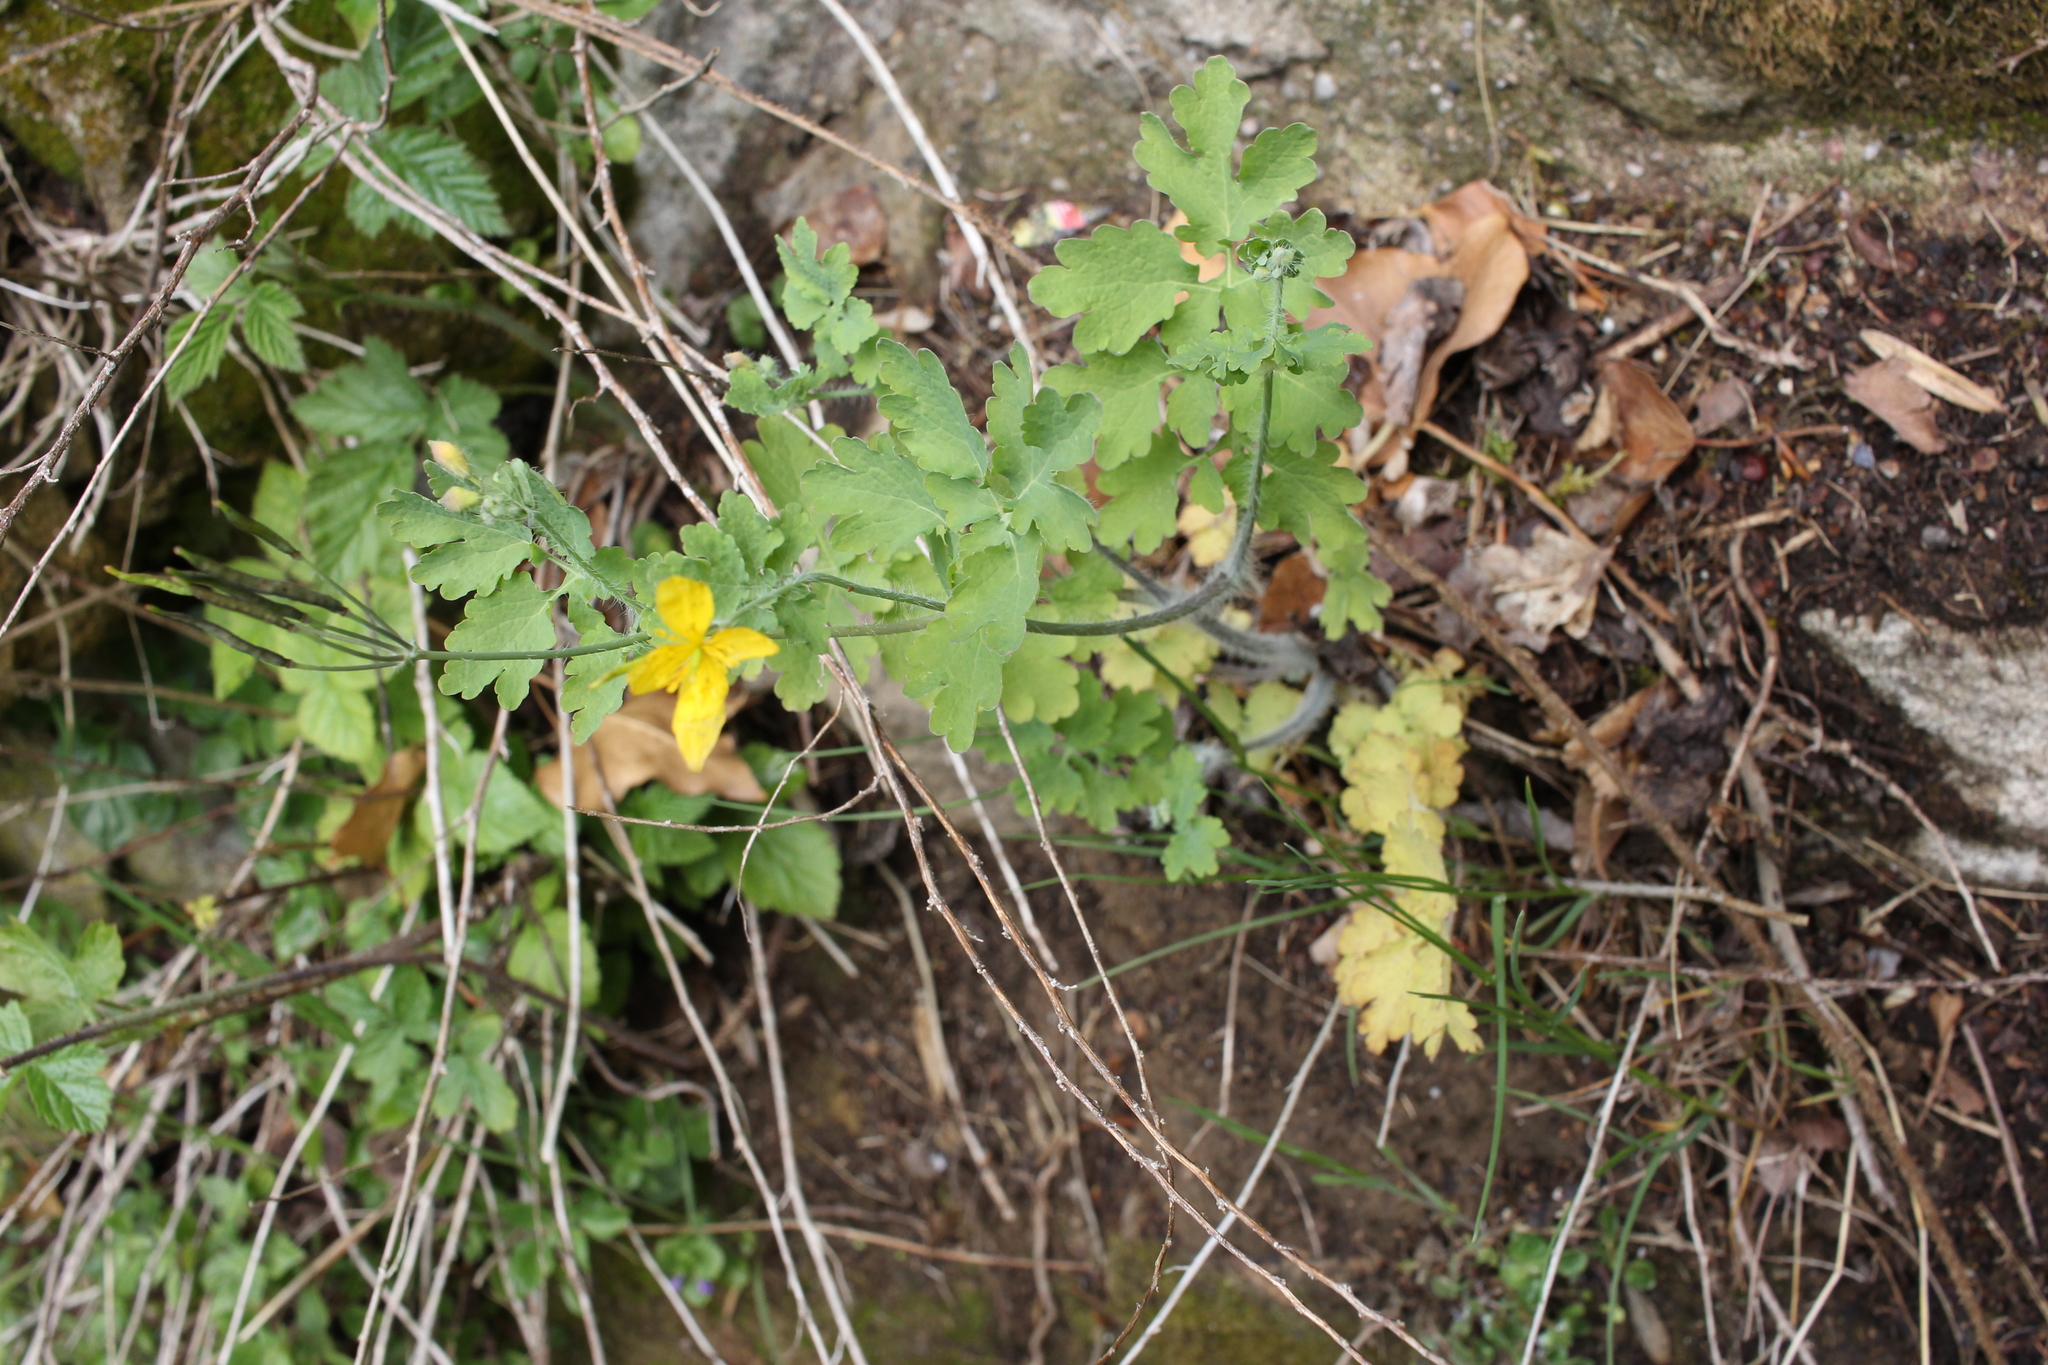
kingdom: Plantae
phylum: Tracheophyta
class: Magnoliopsida
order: Ranunculales
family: Papaveraceae
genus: Chelidonium
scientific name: Chelidonium majus
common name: Greater celandine
